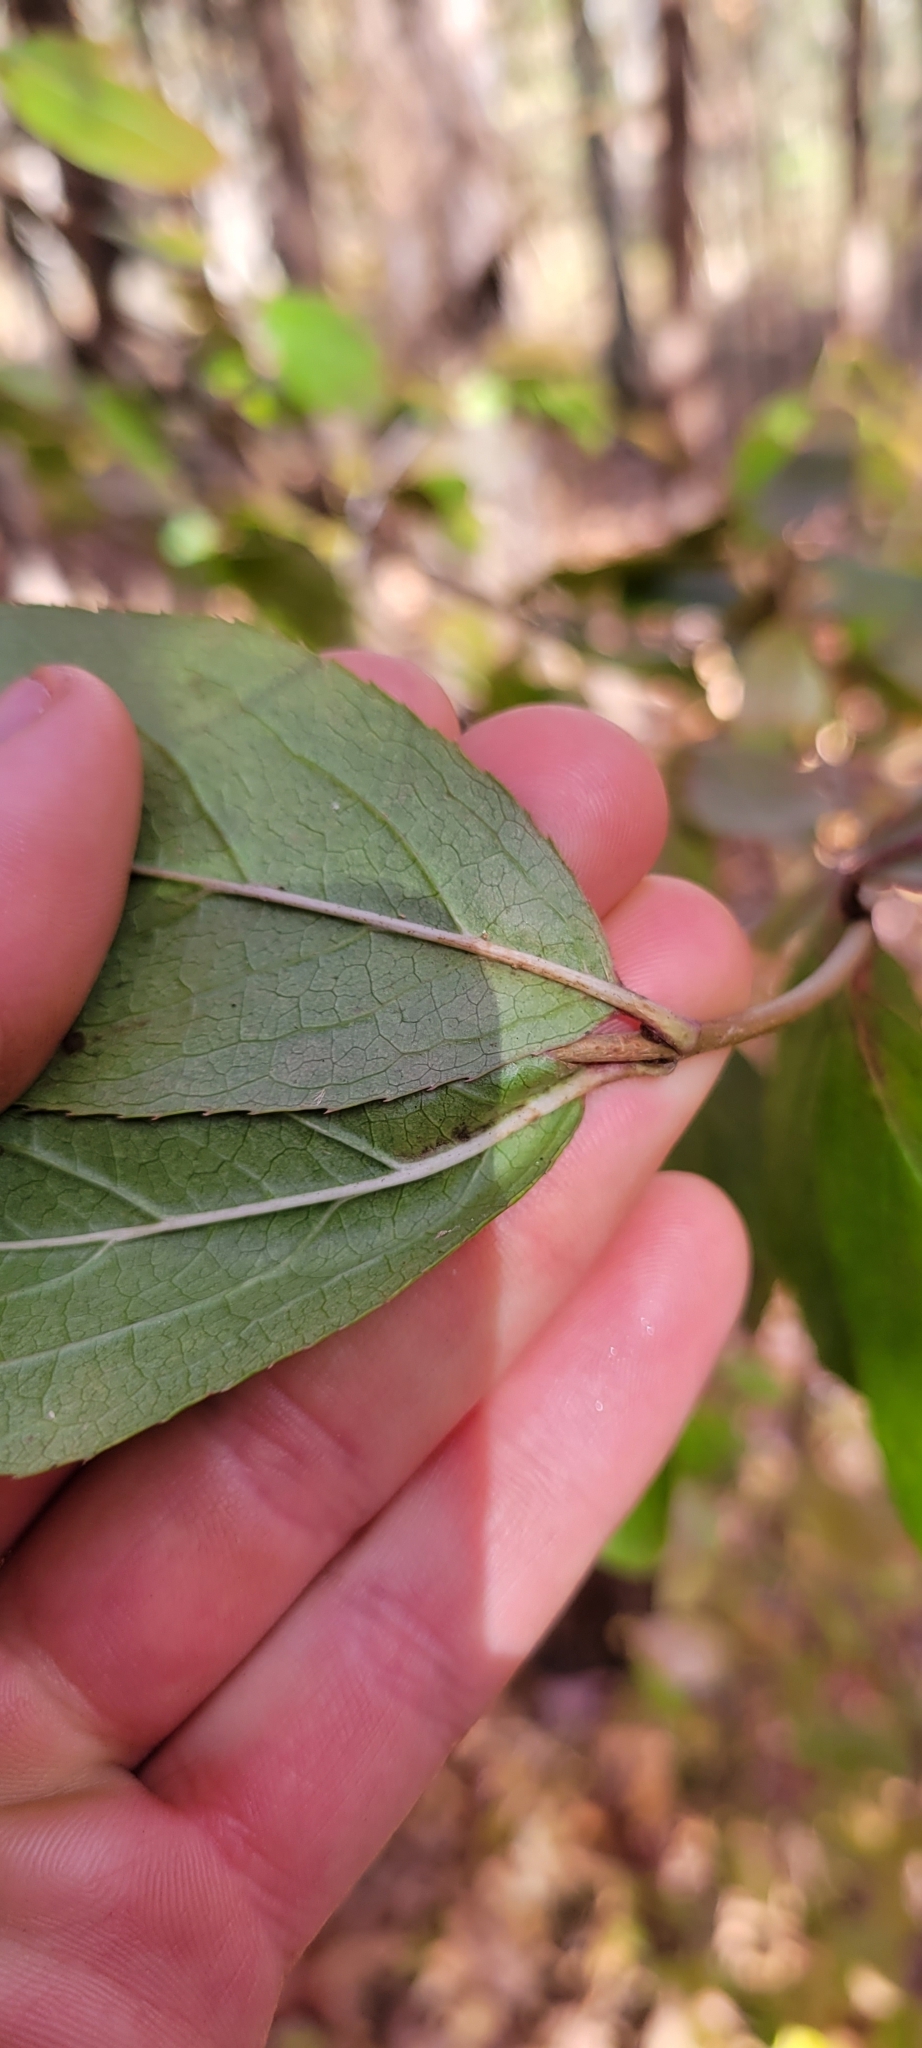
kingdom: Plantae
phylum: Tracheophyta
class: Magnoliopsida
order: Dipsacales
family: Viburnaceae
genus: Viburnum
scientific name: Viburnum rufidulum
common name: Blue haw
